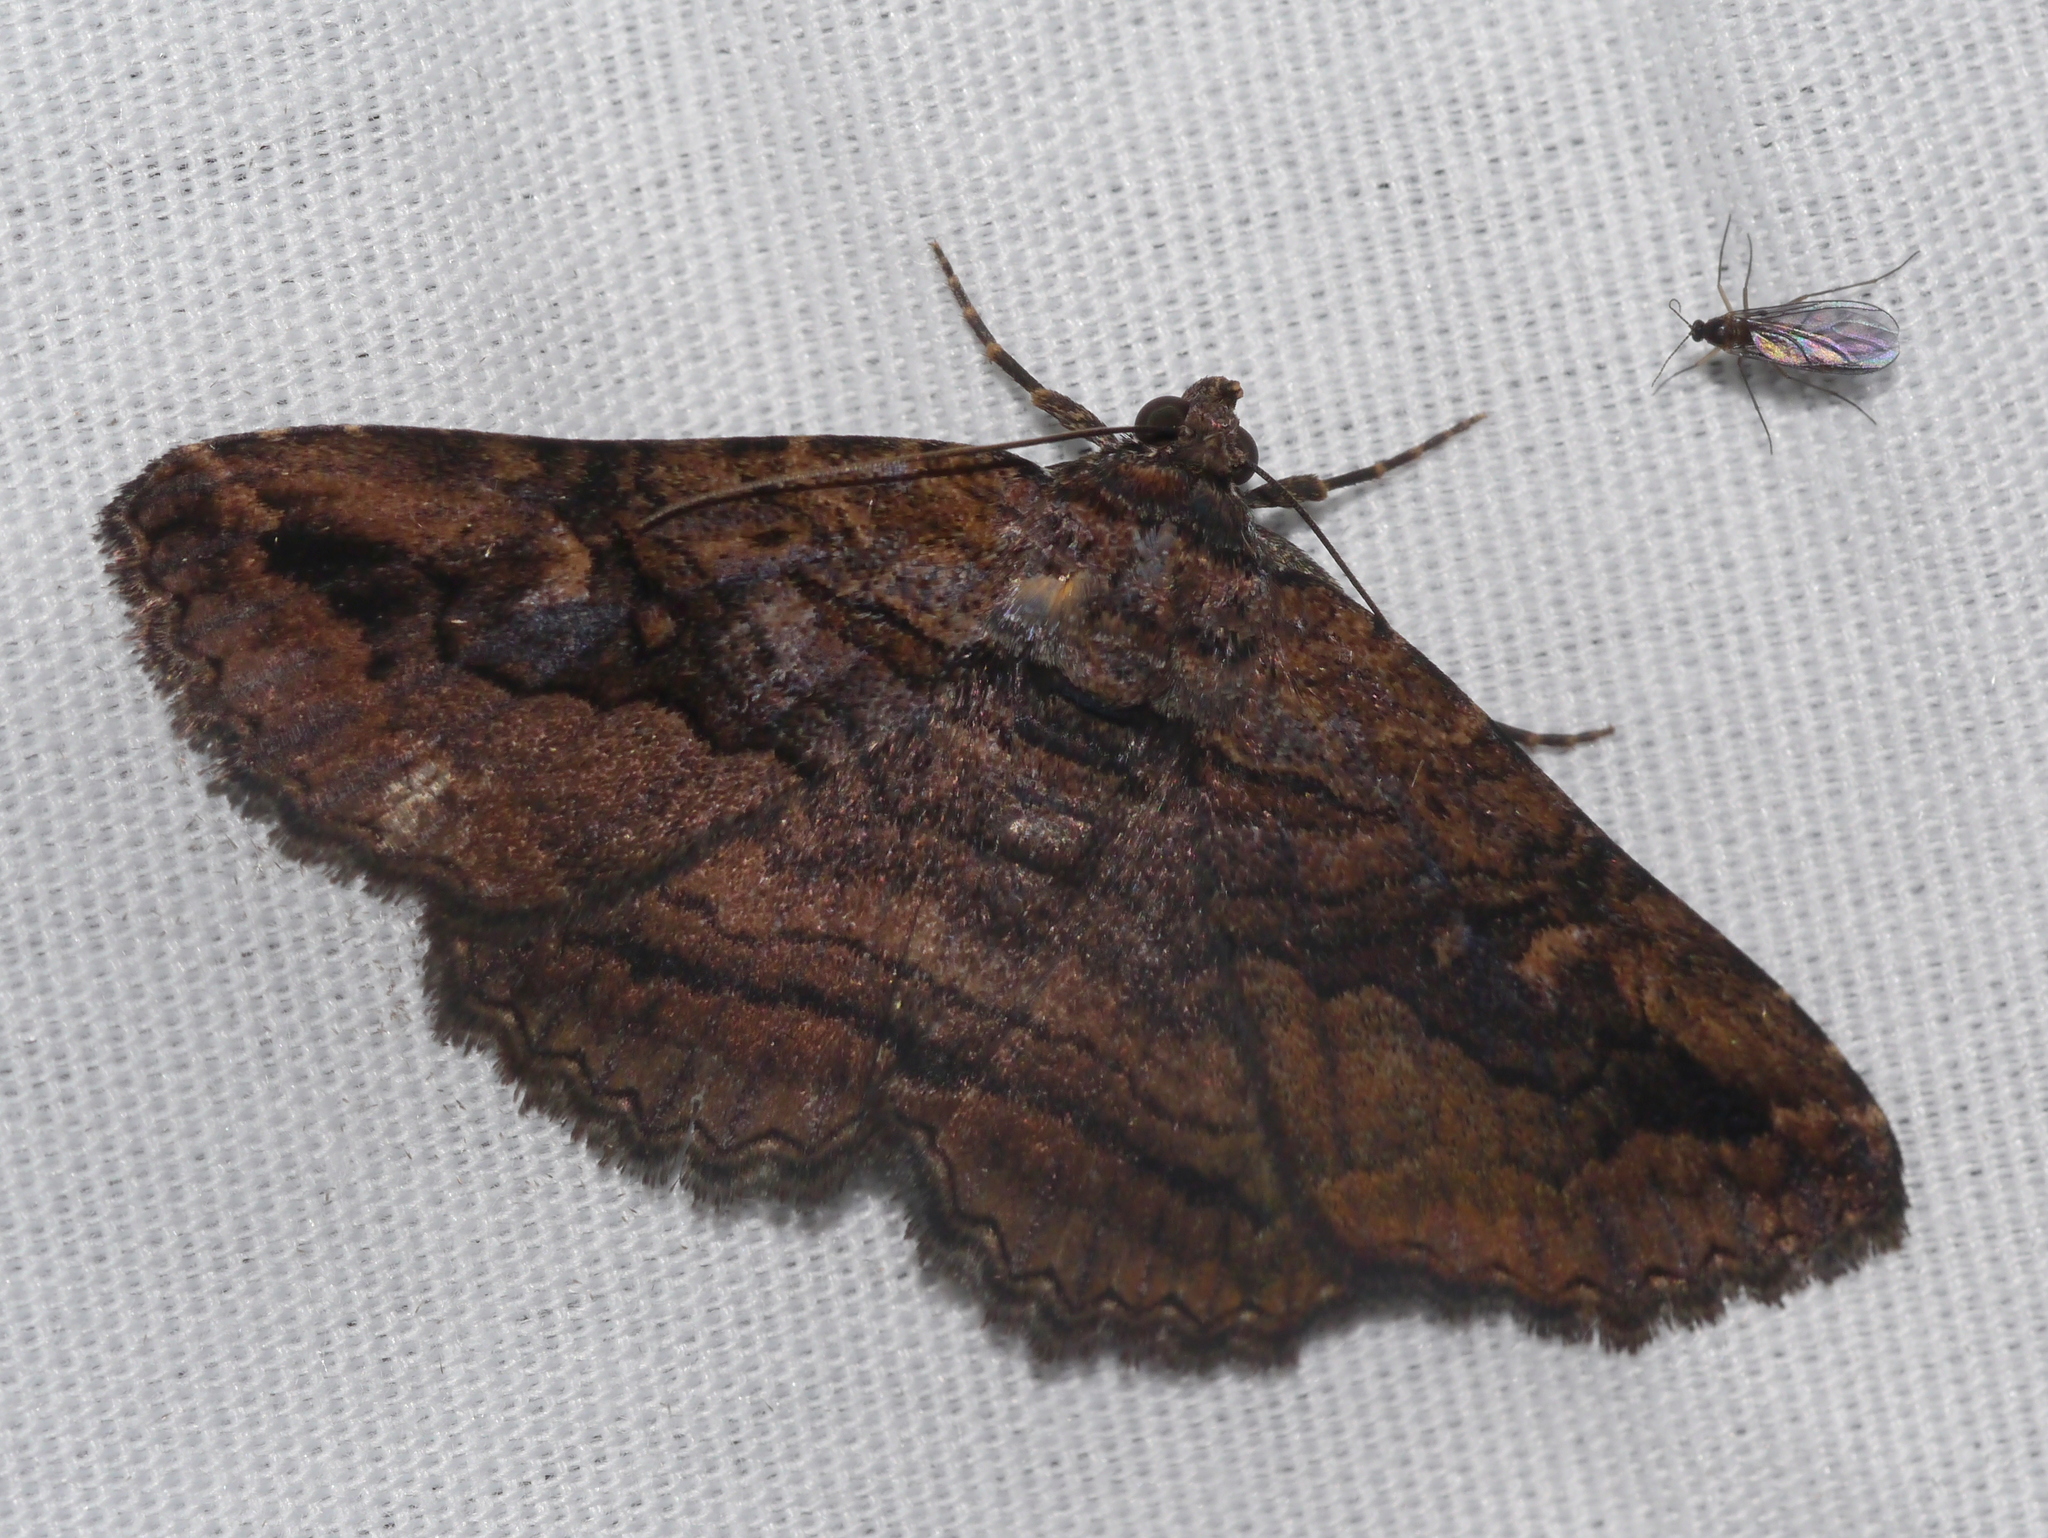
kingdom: Animalia
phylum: Arthropoda
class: Insecta
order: Lepidoptera
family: Erebidae
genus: Zaleops
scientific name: Zaleops umbrina
